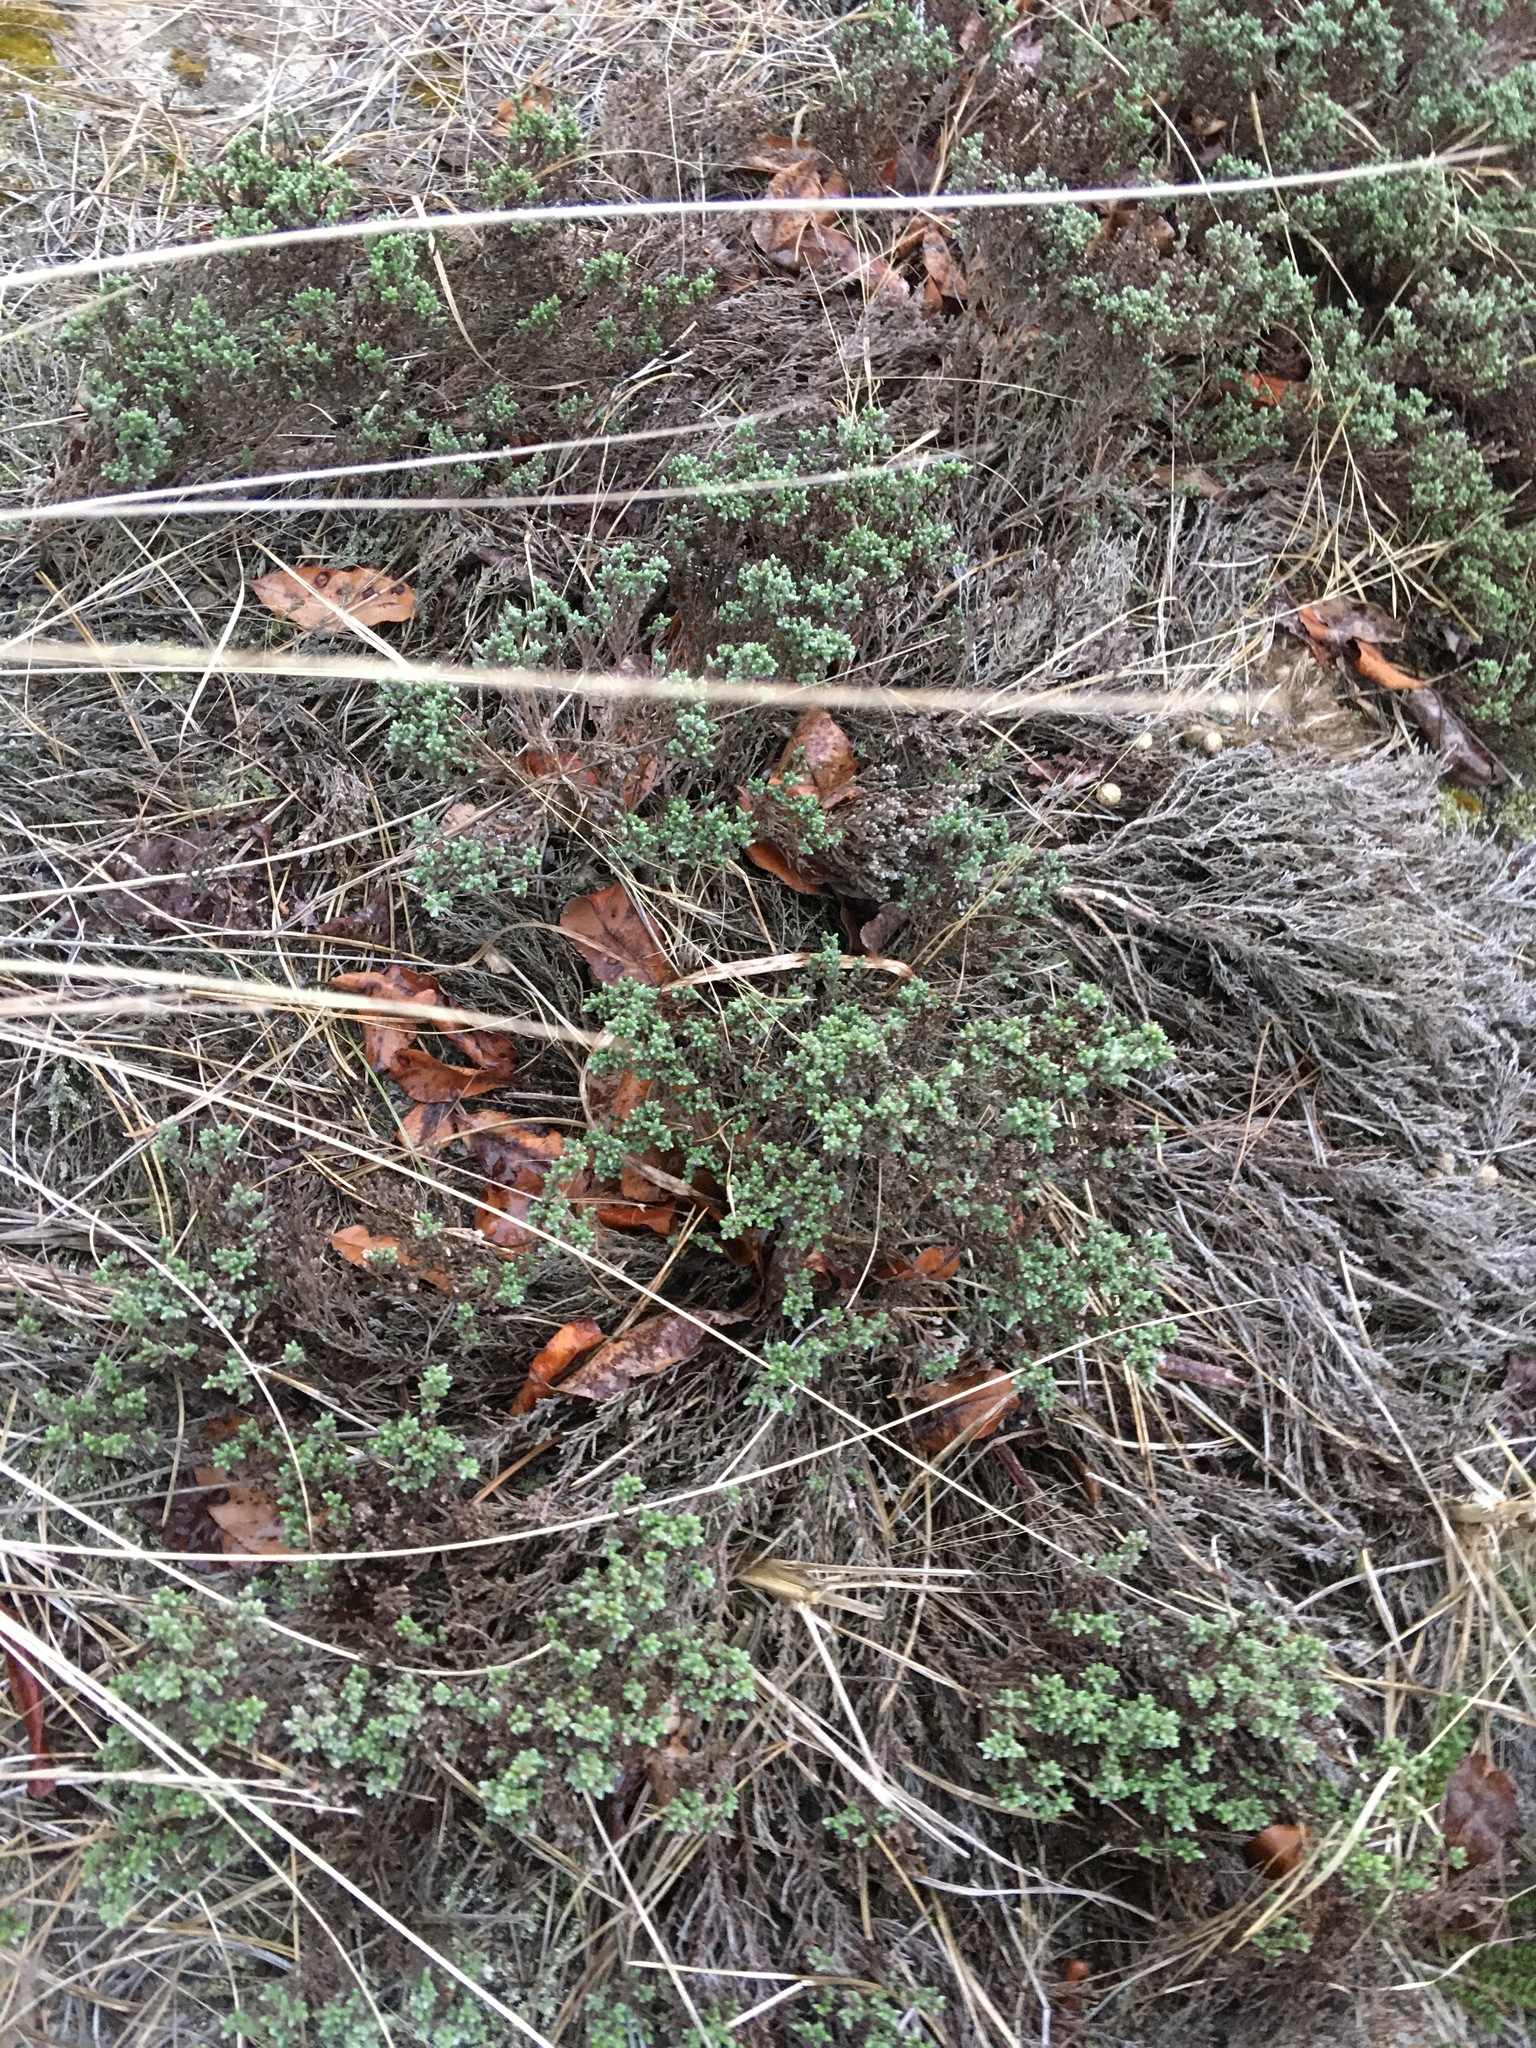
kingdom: Plantae
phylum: Tracheophyta
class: Magnoliopsida
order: Malvales
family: Cistaceae
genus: Hudsonia
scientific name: Hudsonia tomentosa
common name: Beach-heath
